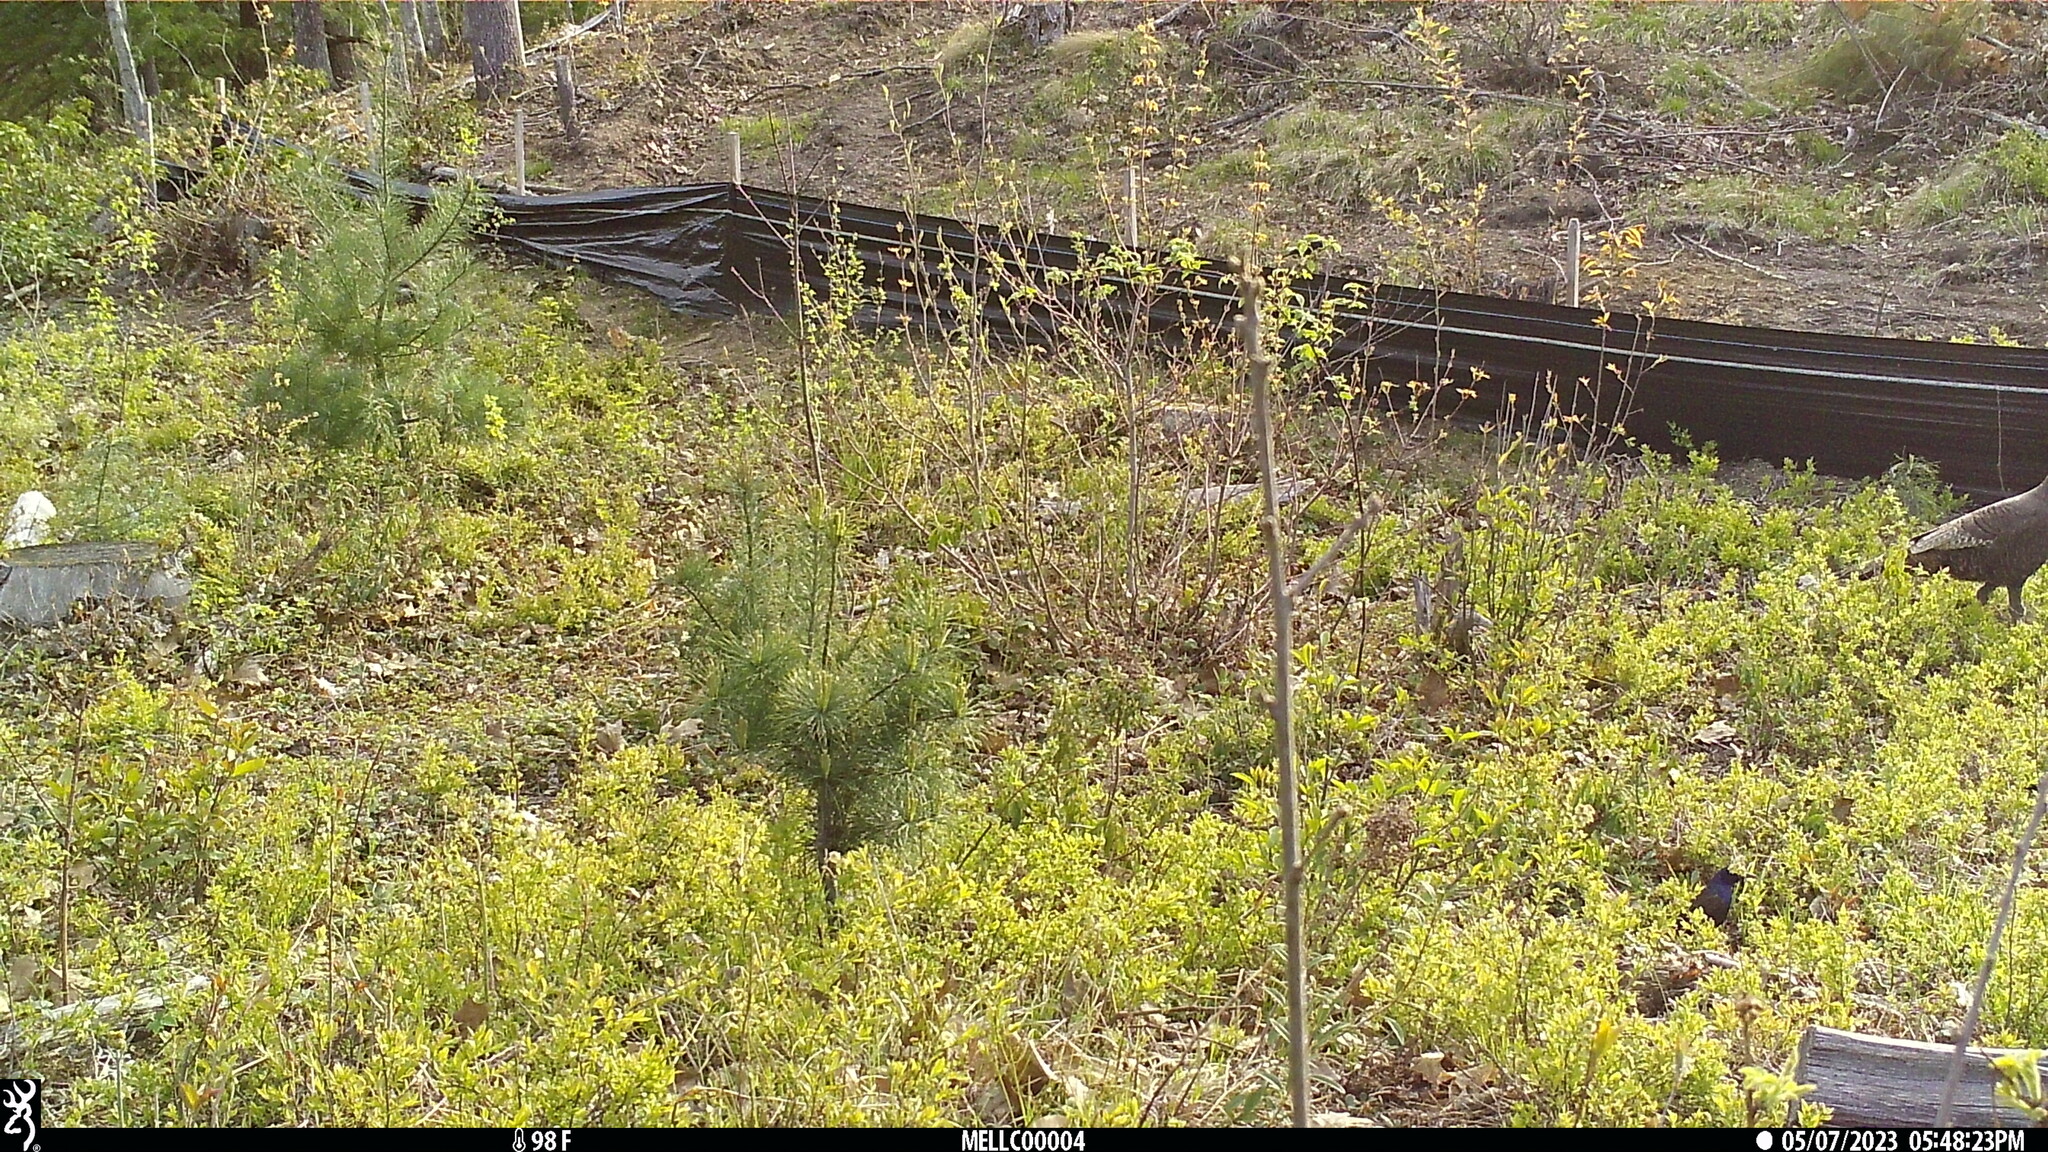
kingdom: Animalia
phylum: Chordata
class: Aves
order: Passeriformes
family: Icteridae
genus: Quiscalus
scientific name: Quiscalus quiscula
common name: Common grackle
